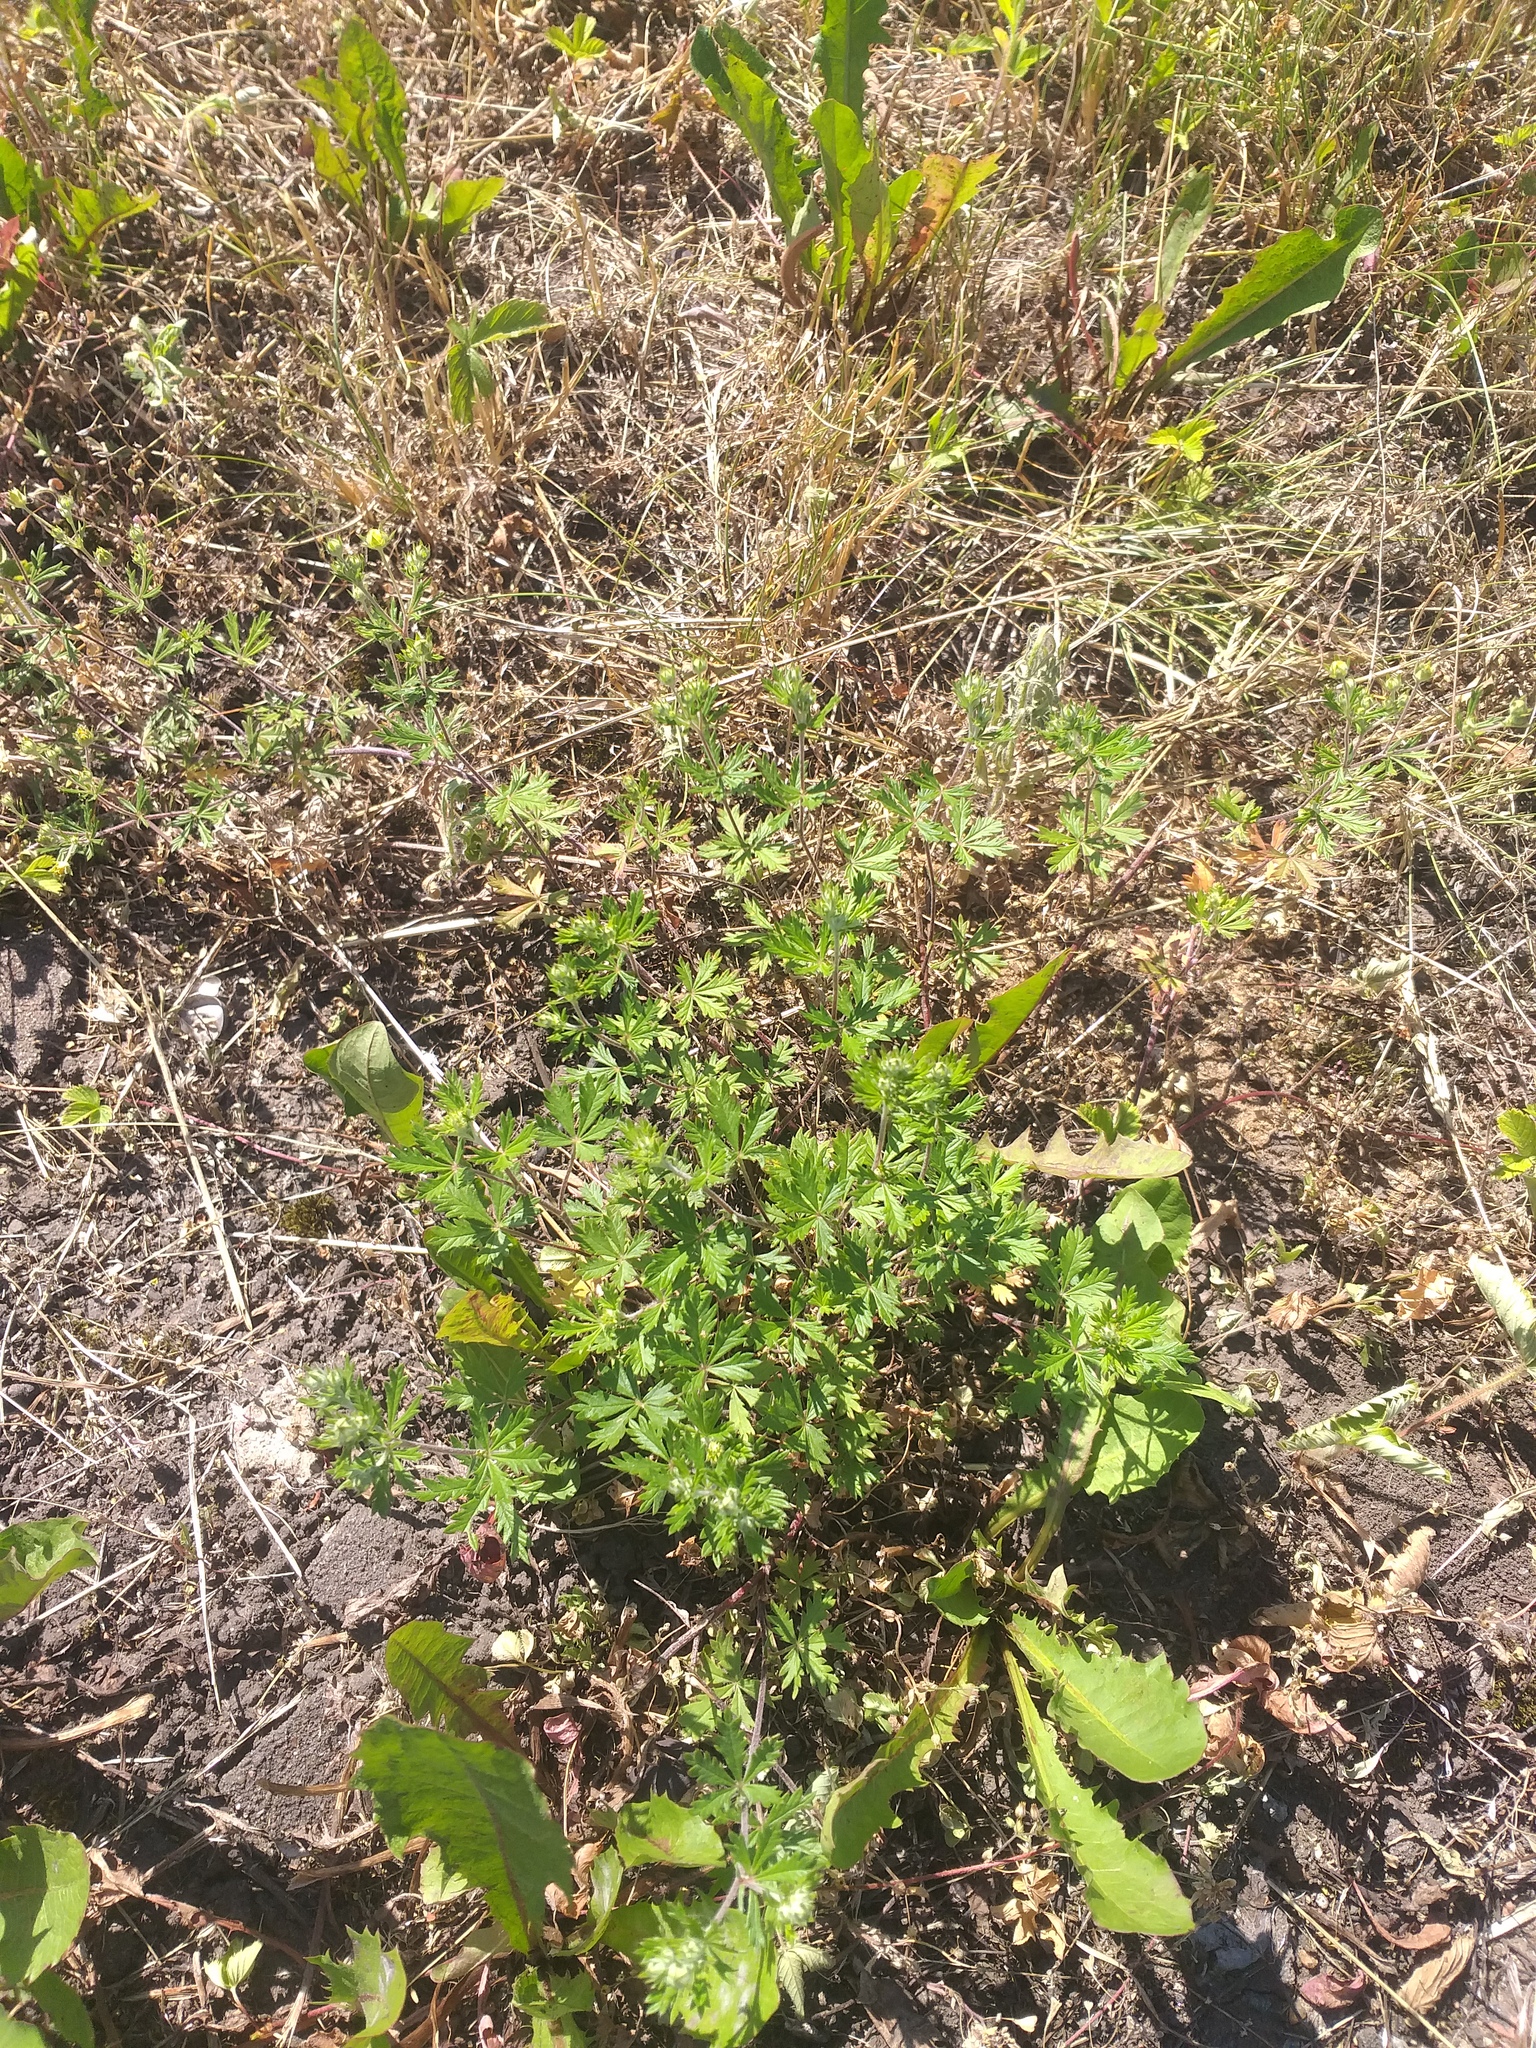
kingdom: Plantae
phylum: Tracheophyta
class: Magnoliopsida
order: Rosales
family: Rosaceae
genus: Potentilla
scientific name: Potentilla argentea
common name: Hoary cinquefoil
